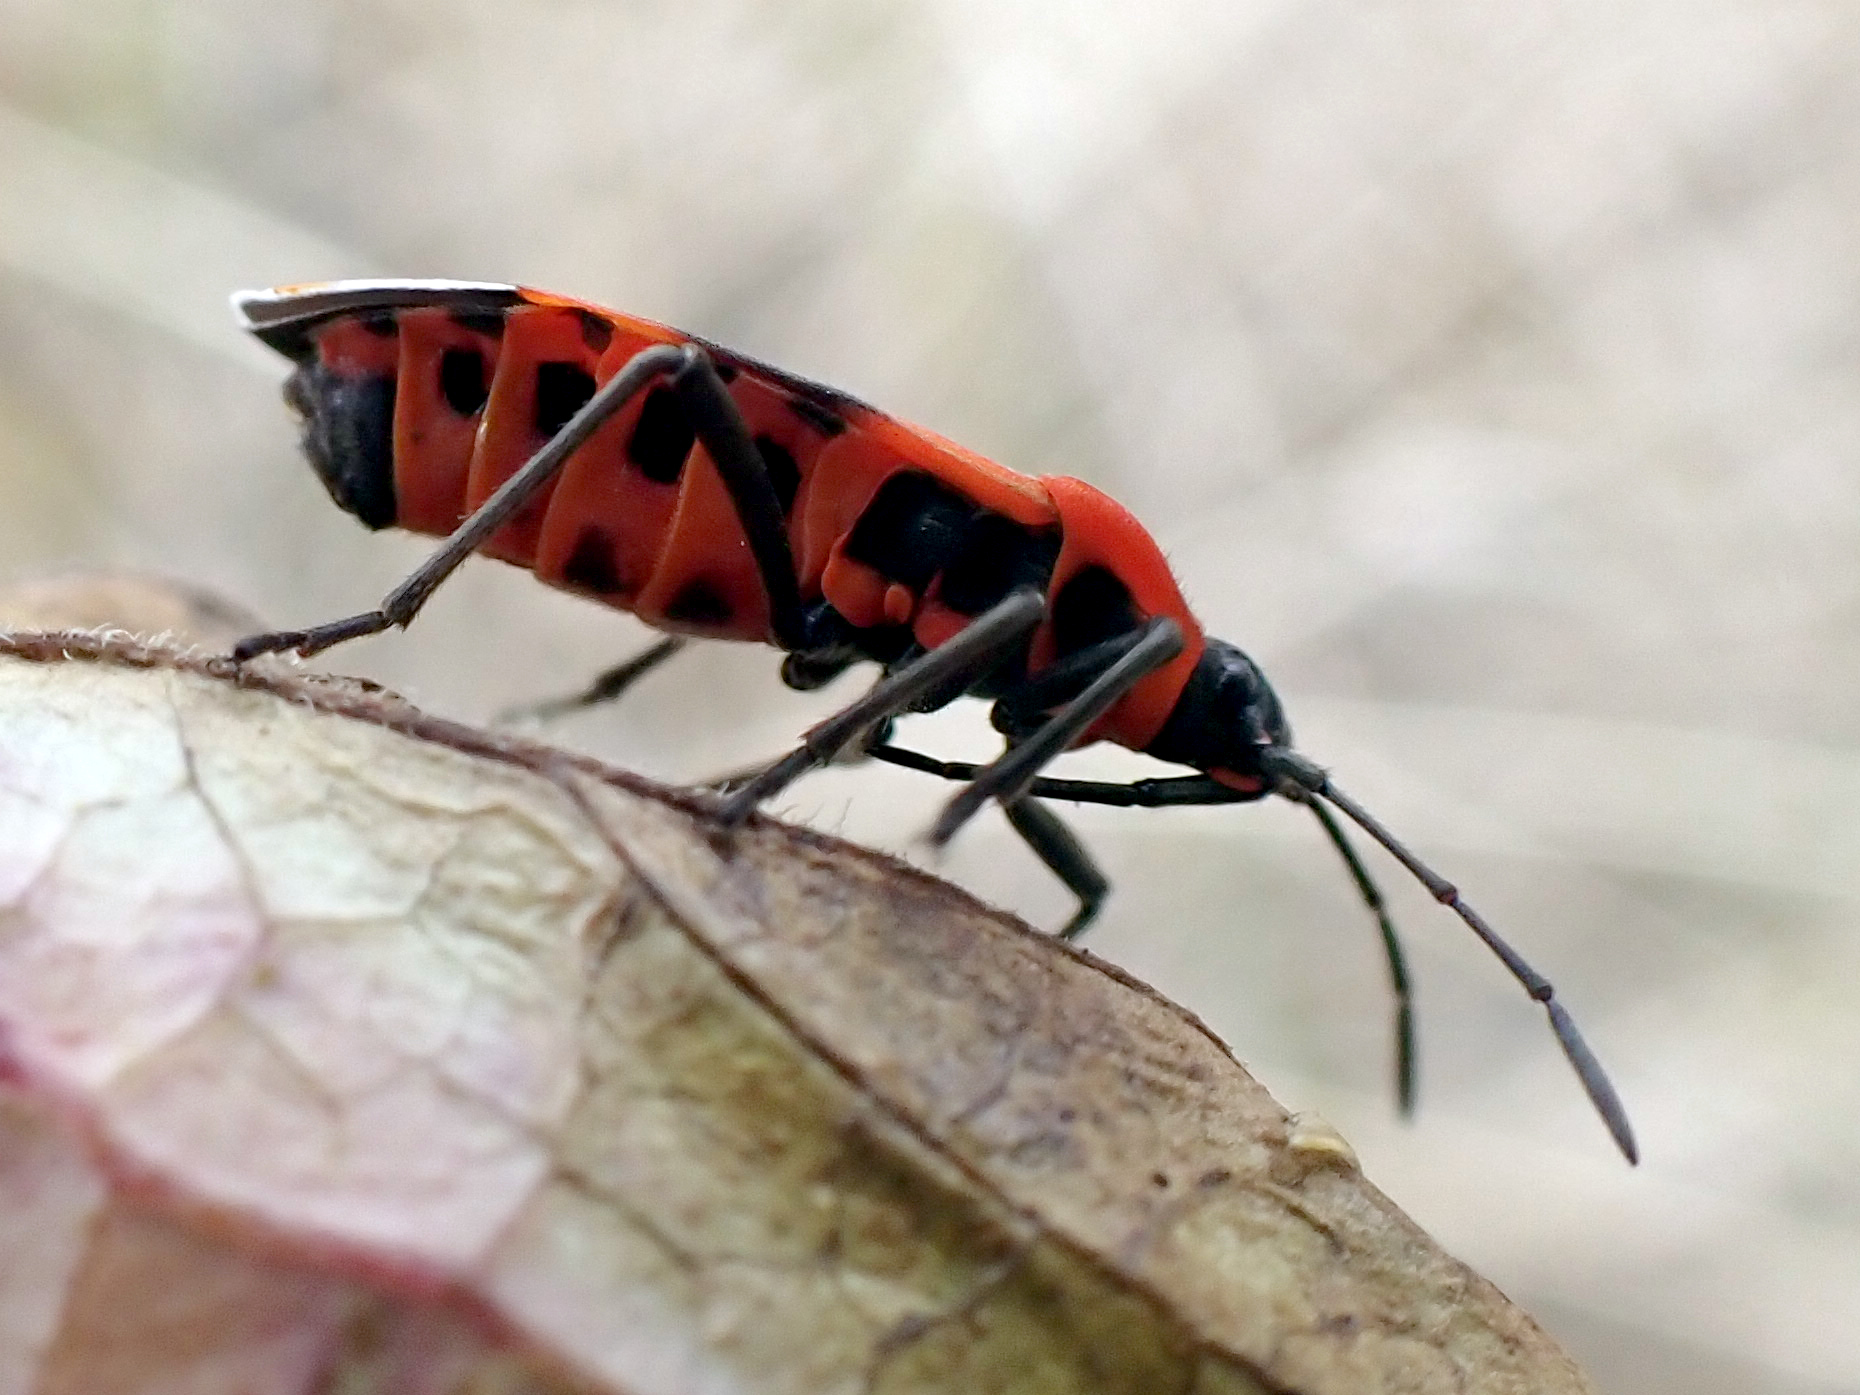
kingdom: Animalia
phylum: Arthropoda
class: Insecta
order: Hemiptera
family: Lygaeidae
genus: Tropidothorax
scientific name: Tropidothorax leucopterus
